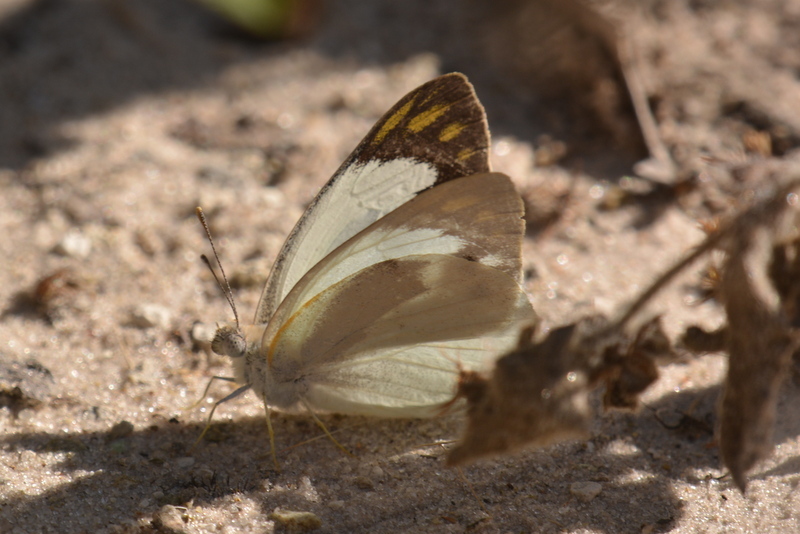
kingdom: Animalia
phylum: Arthropoda
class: Insecta
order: Lepidoptera
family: Pieridae
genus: Colotis
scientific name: Colotis eris
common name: Banded gold tip
